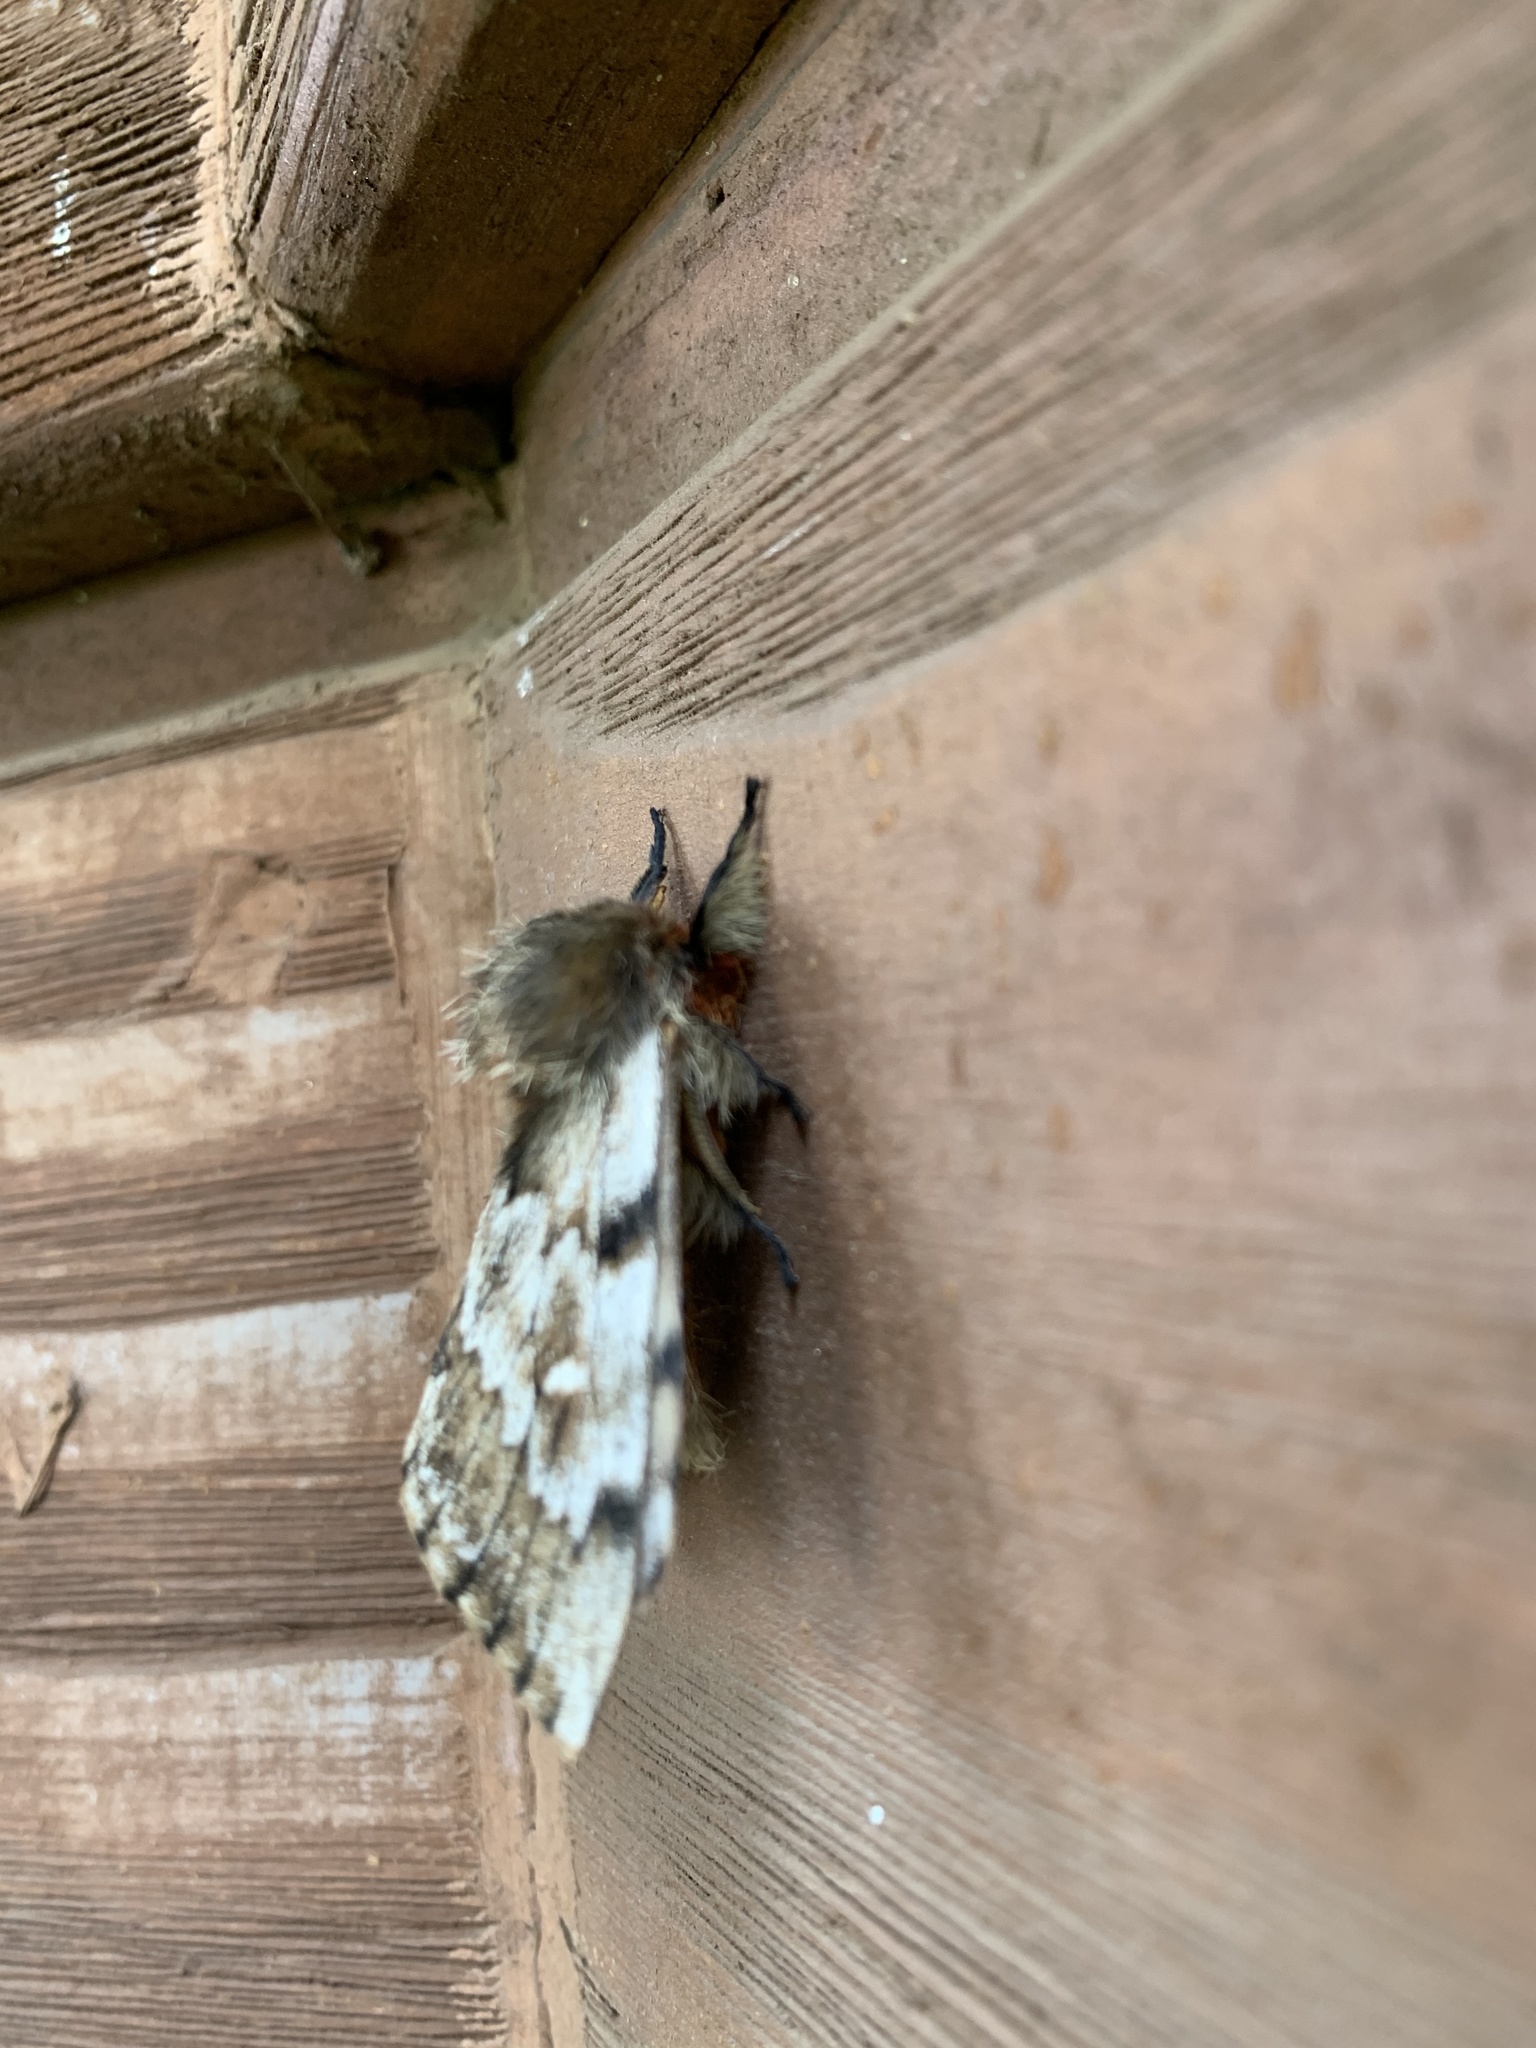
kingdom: Animalia
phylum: Arthropoda
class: Insecta
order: Lepidoptera
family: Saturniidae
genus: Ormiscodes
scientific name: Ormiscodes nigrosignata
